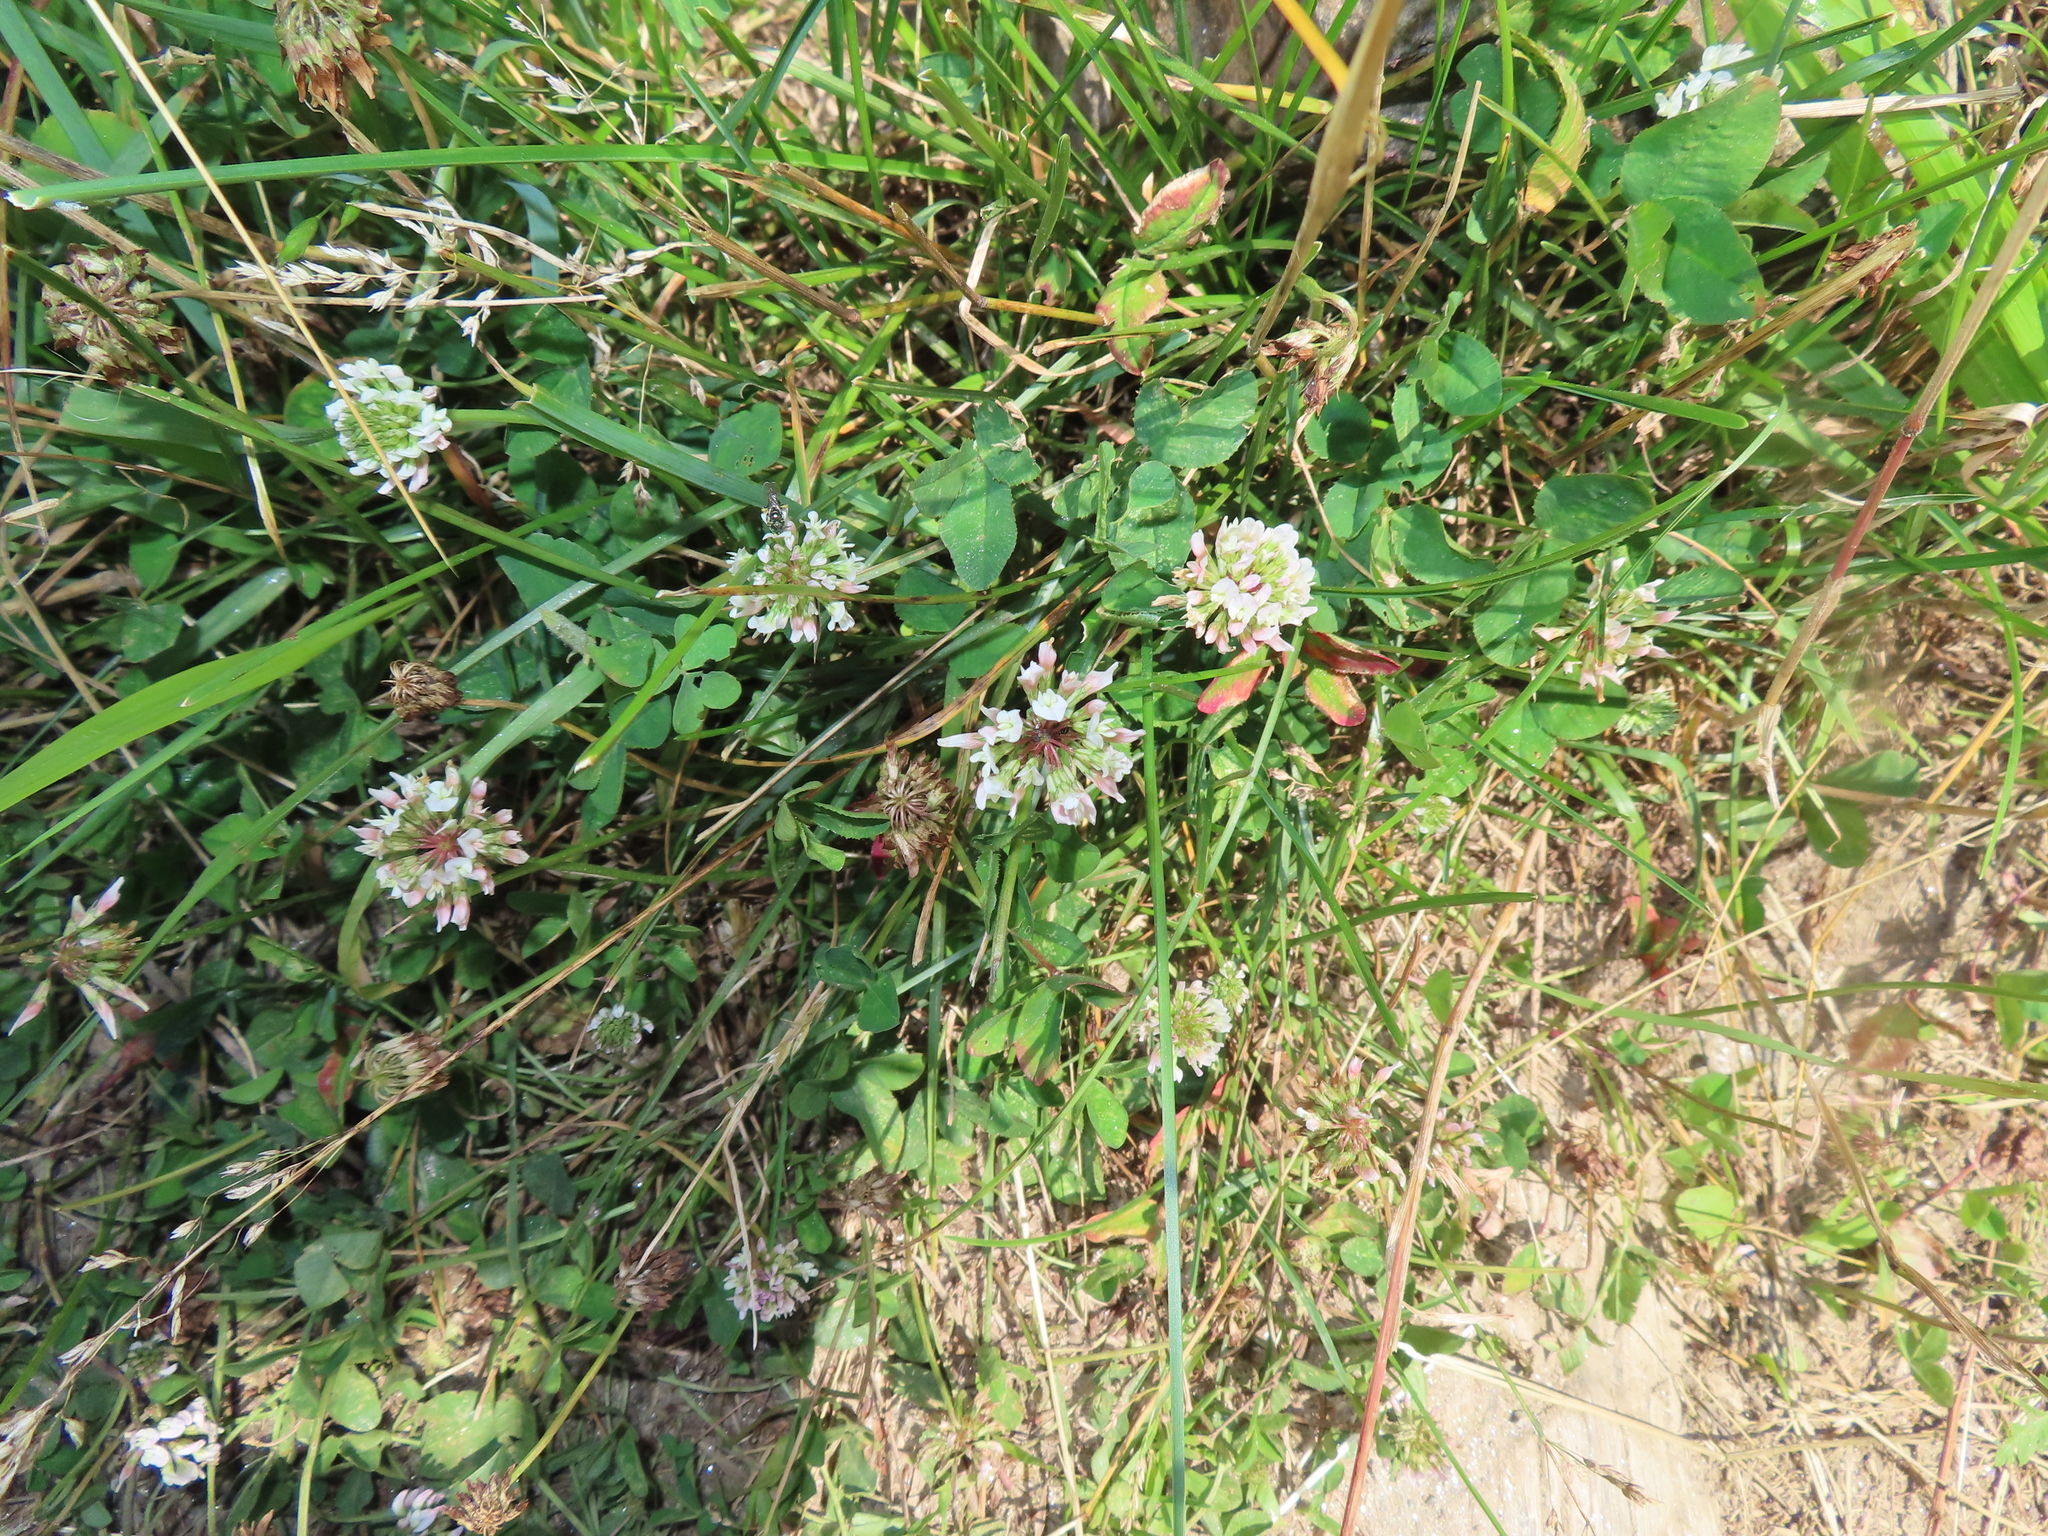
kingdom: Plantae
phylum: Tracheophyta
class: Magnoliopsida
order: Fabales
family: Fabaceae
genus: Trifolium
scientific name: Trifolium repens
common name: White clover
